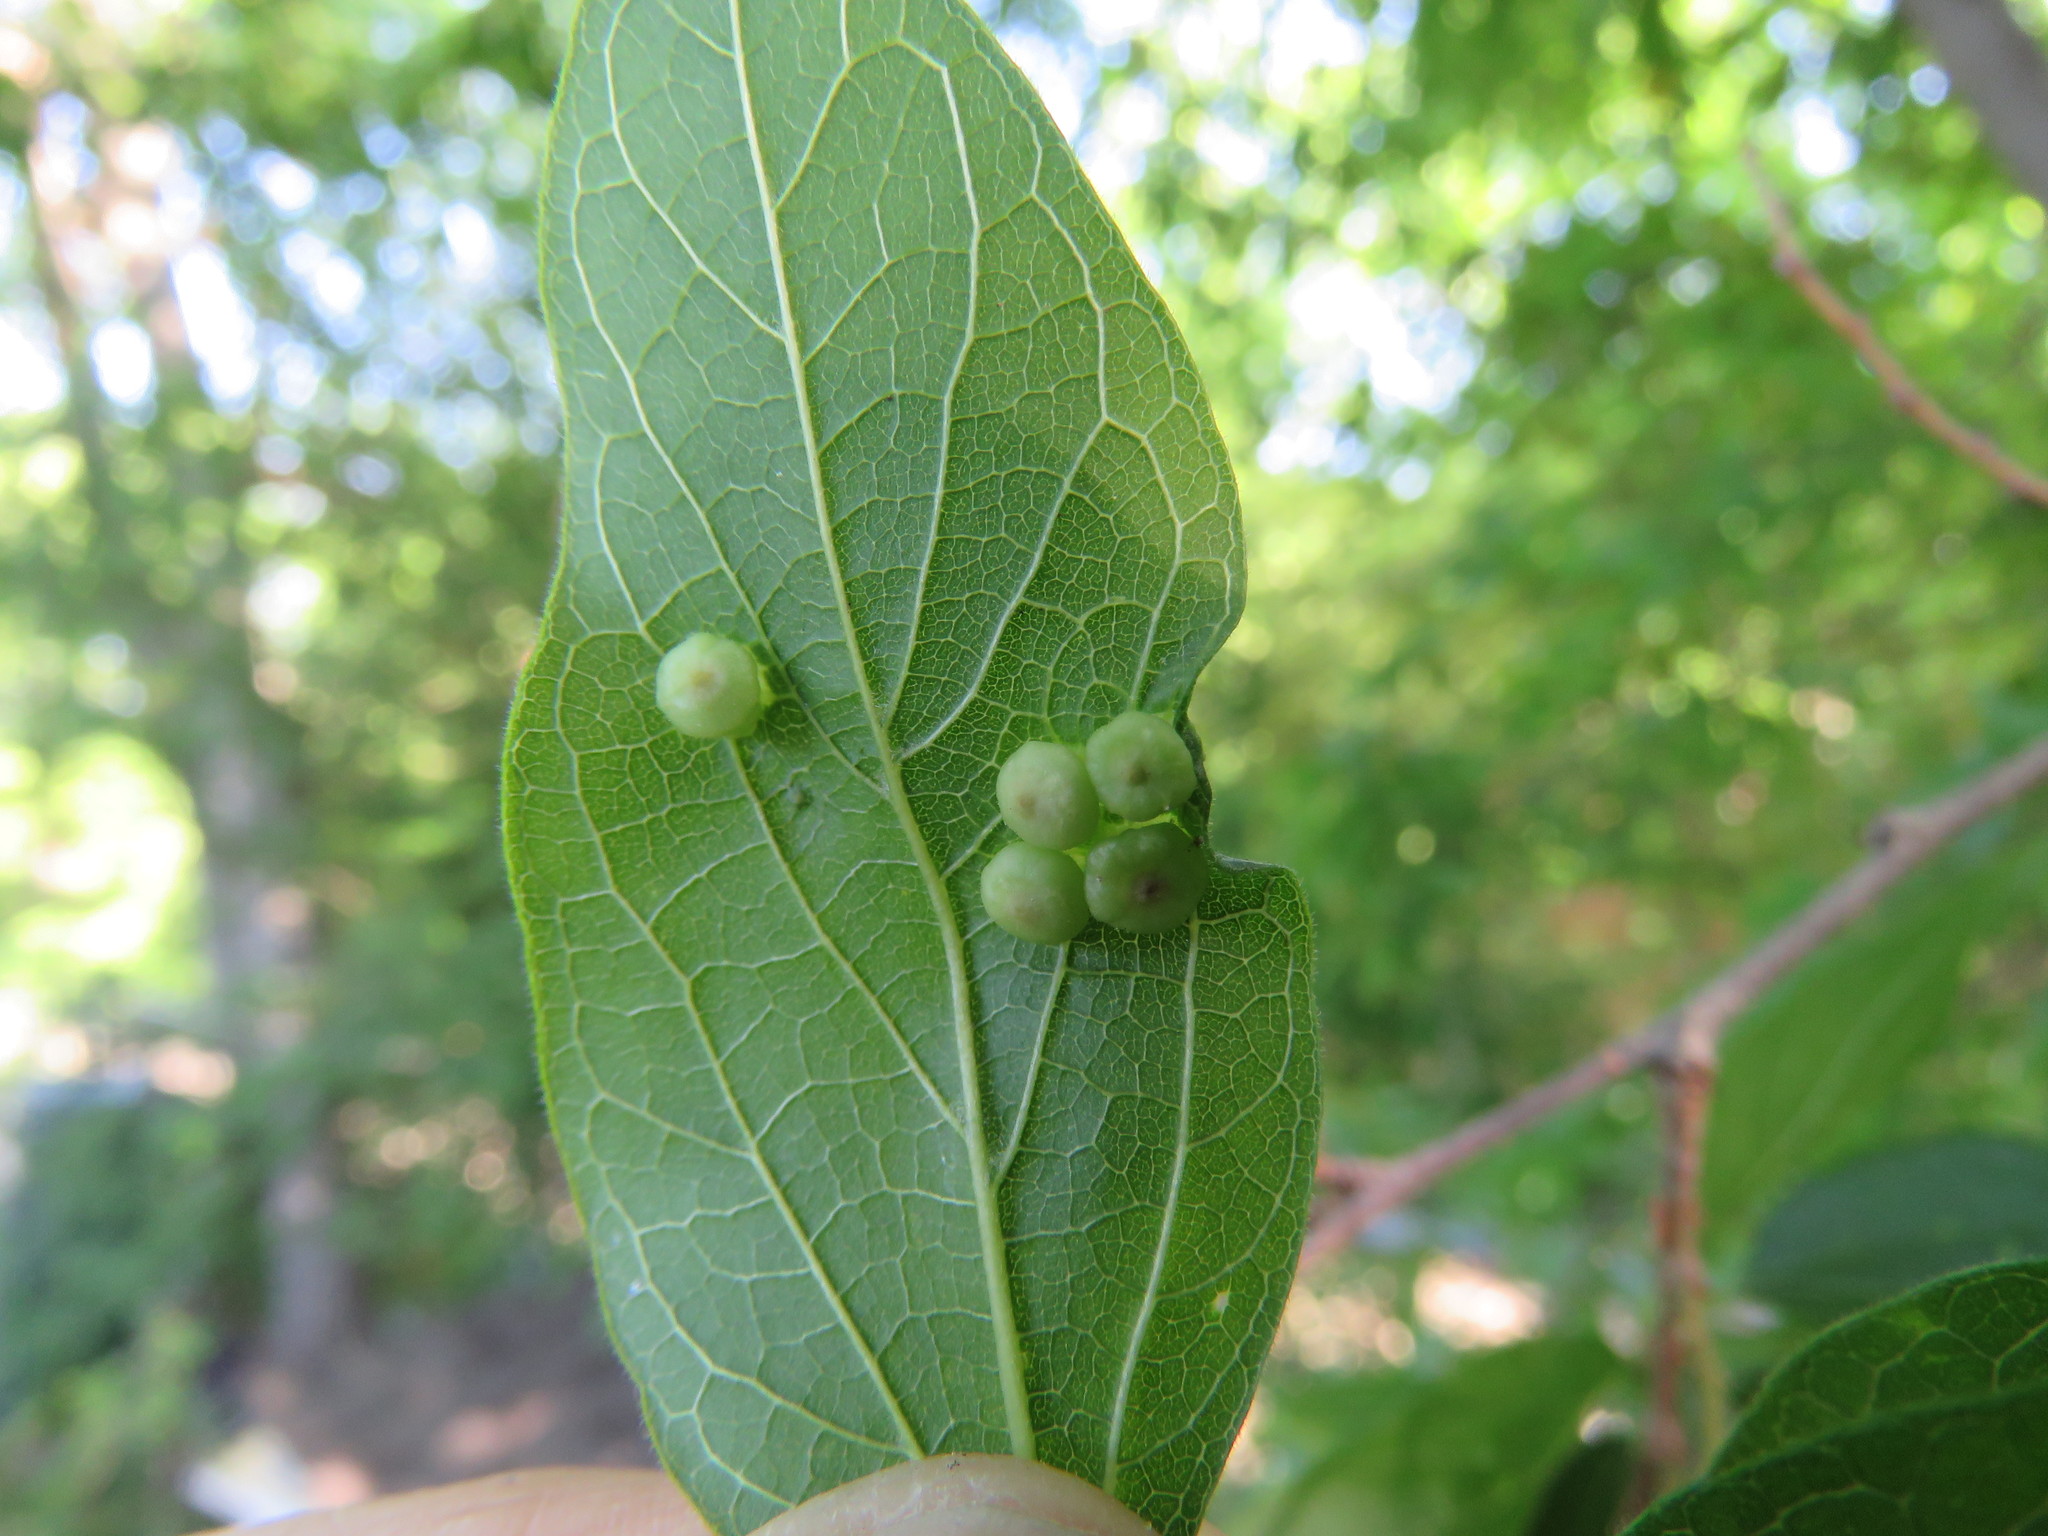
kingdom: Animalia
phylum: Arthropoda
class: Insecta
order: Hemiptera
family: Aphalaridae
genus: Pachypsylla
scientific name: Pachypsylla celtidismamma
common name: Hackberry nipplegall psyllid
